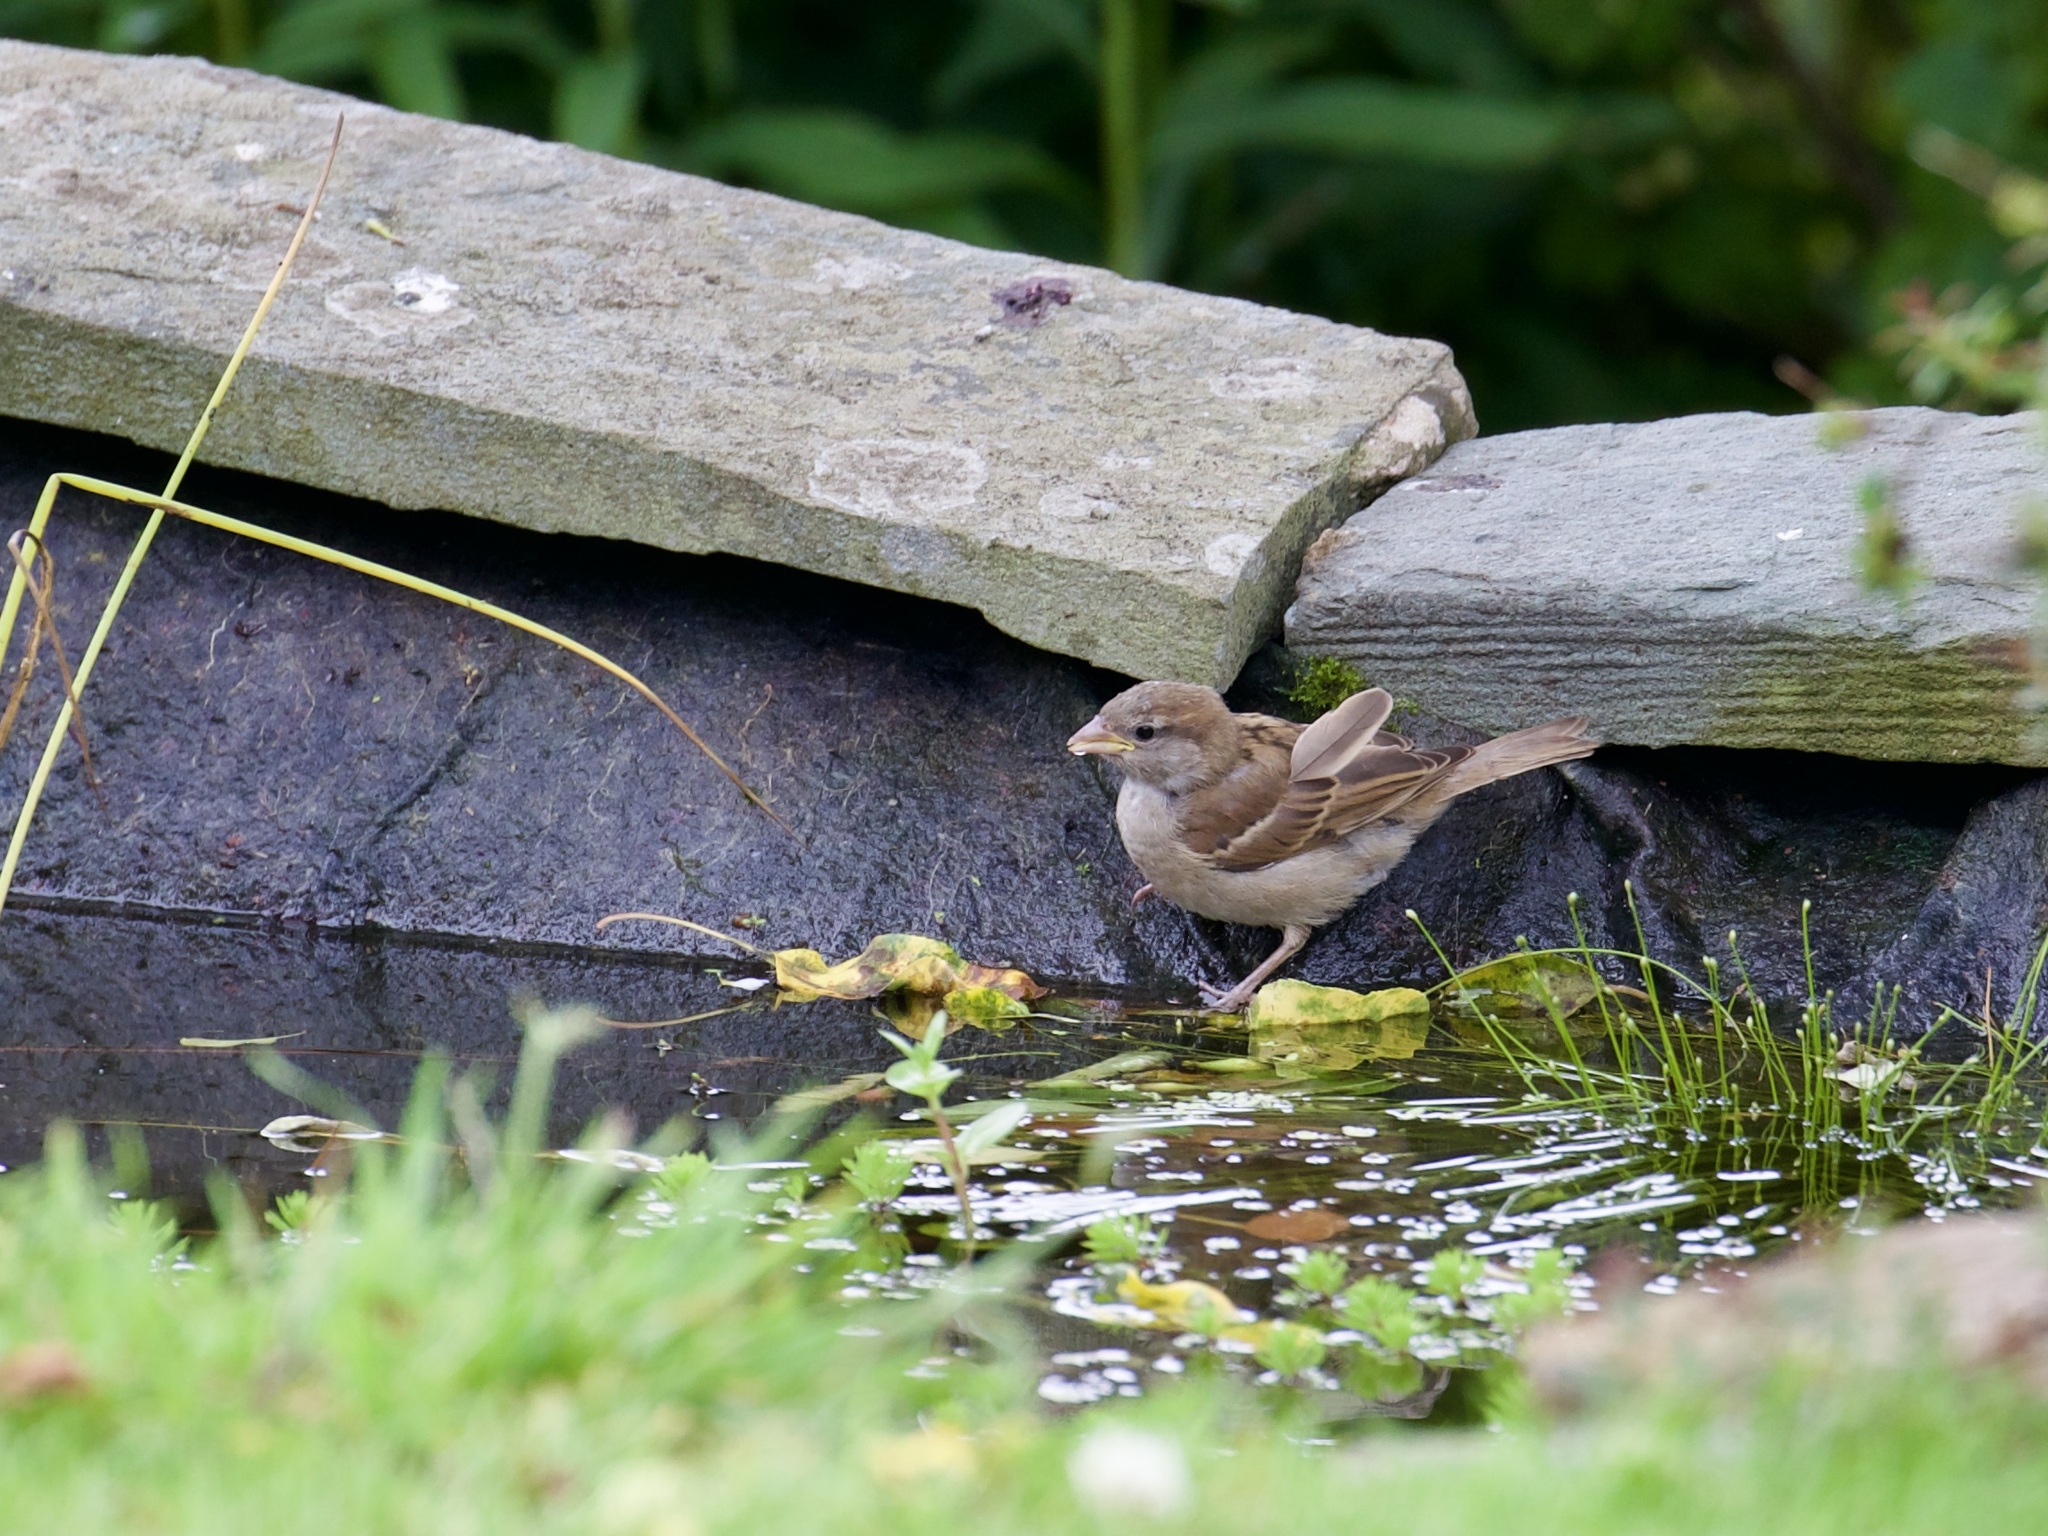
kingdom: Animalia
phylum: Chordata
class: Aves
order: Passeriformes
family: Passeridae
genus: Passer
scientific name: Passer domesticus
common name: House sparrow
